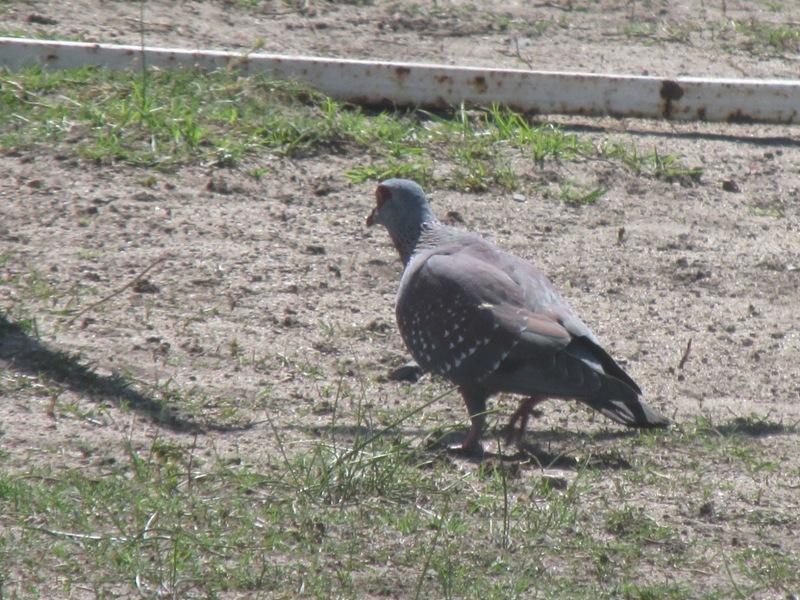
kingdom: Animalia
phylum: Chordata
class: Aves
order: Columbiformes
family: Columbidae
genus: Columba
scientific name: Columba guinea
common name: Speckled pigeon
